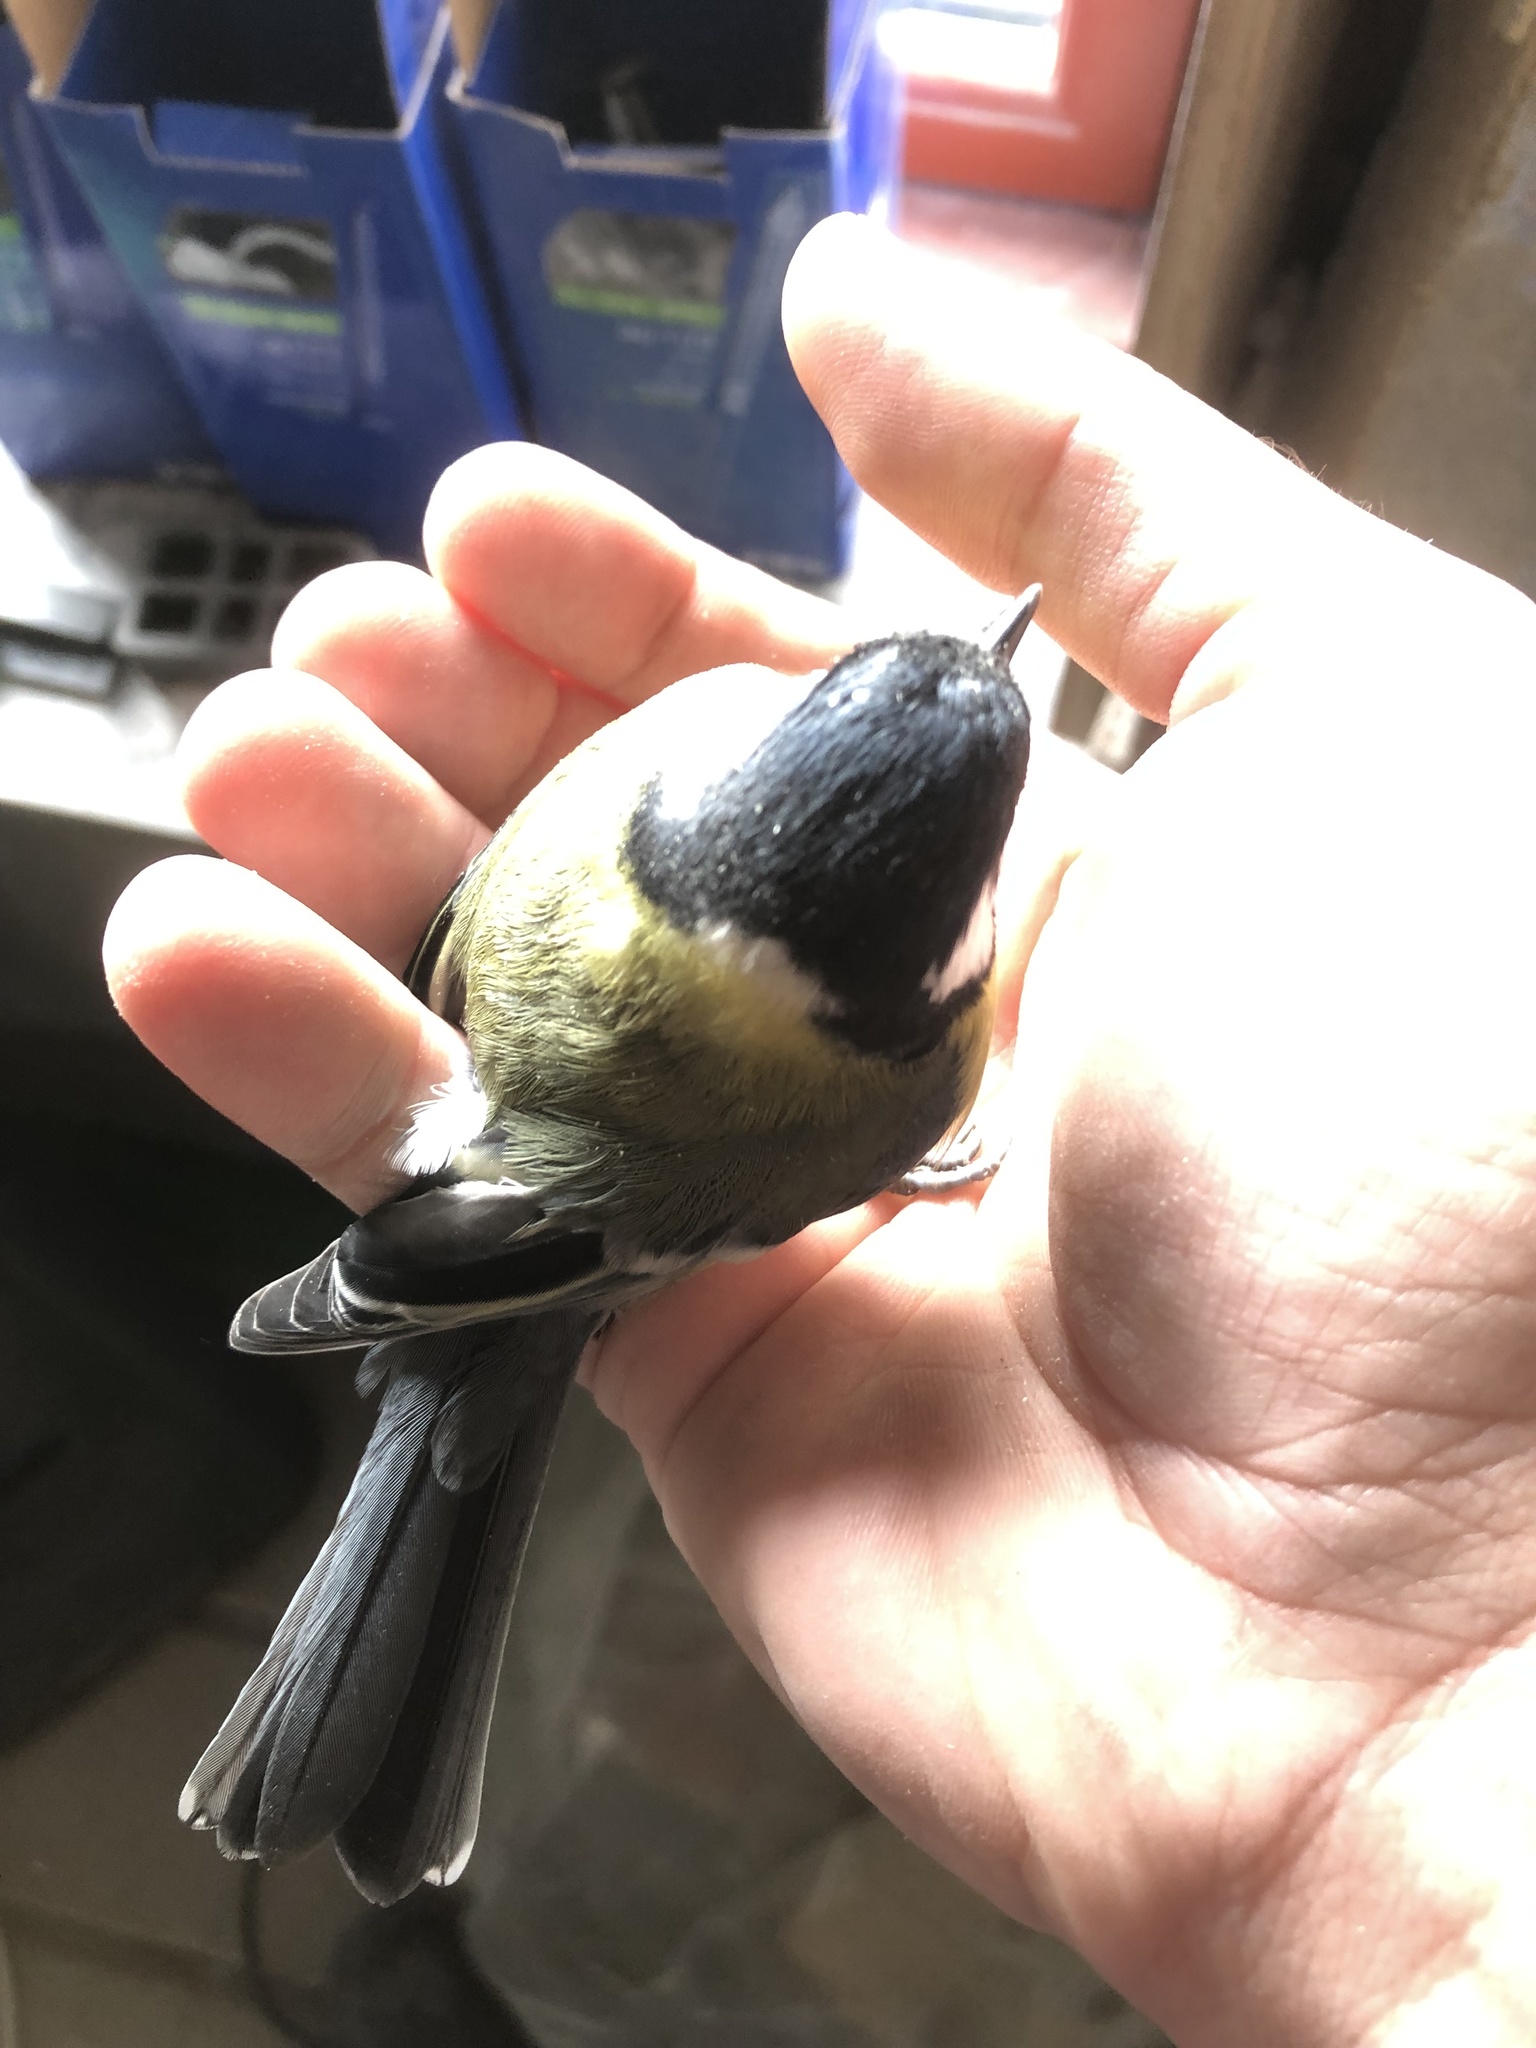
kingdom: Animalia
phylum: Chordata
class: Aves
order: Passeriformes
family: Paridae
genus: Parus
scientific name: Parus major
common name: Great tit
